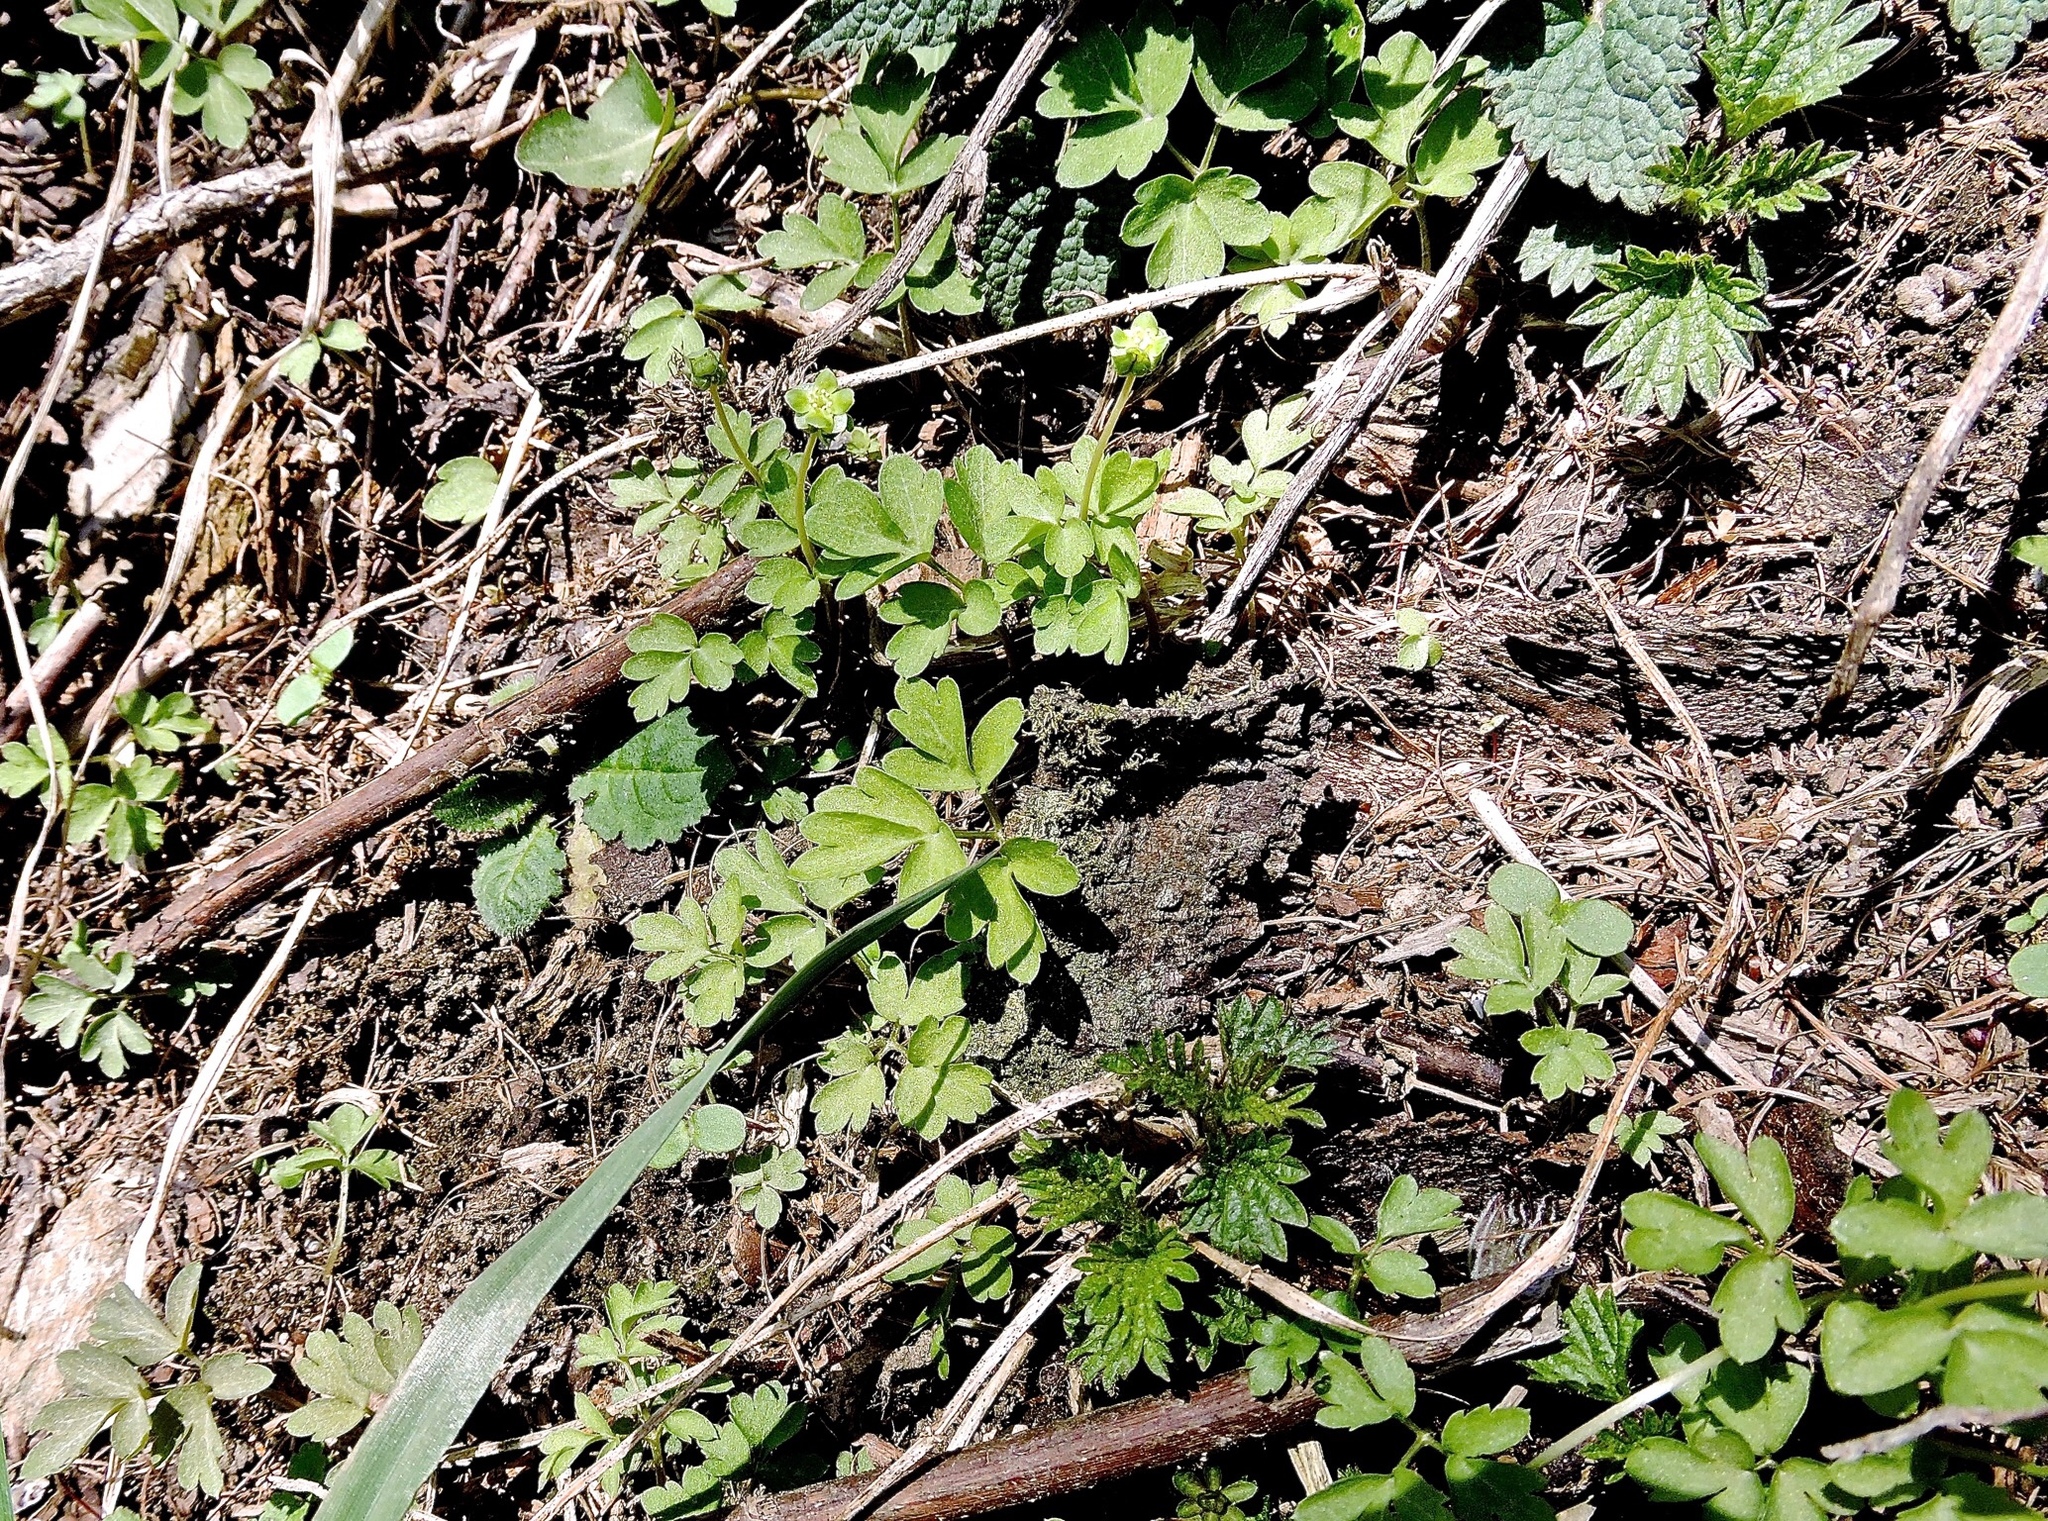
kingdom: Plantae
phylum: Tracheophyta
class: Magnoliopsida
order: Dipsacales
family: Viburnaceae
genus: Adoxa
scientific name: Adoxa moschatellina
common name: Moschatel
